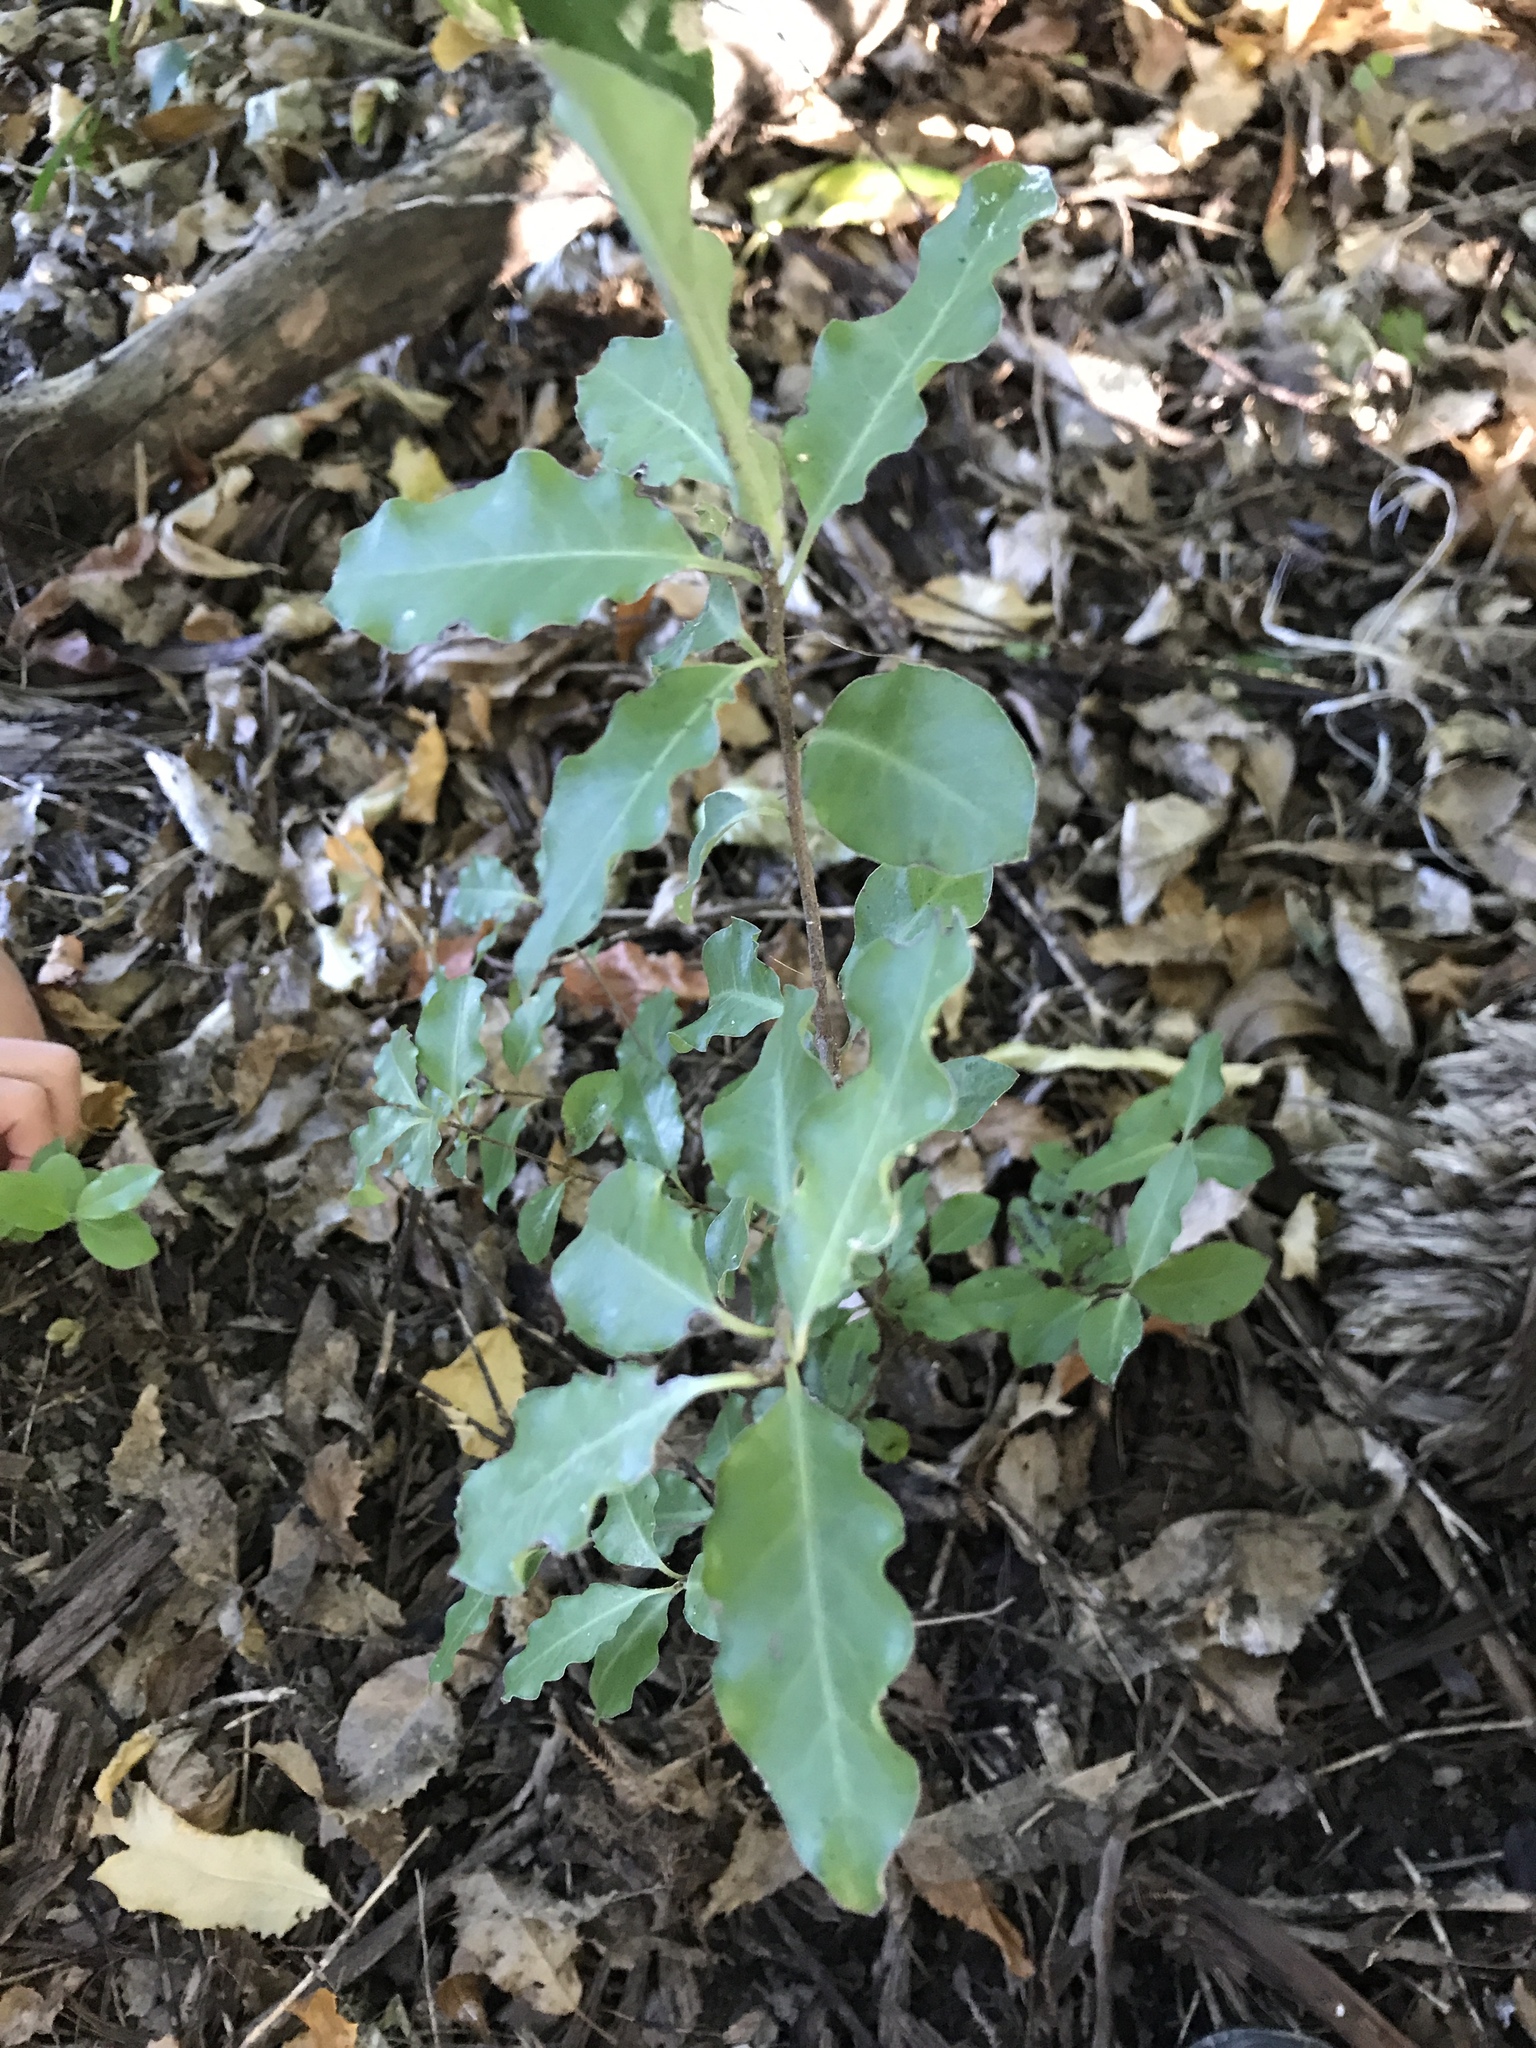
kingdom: Plantae
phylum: Tracheophyta
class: Magnoliopsida
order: Apiales
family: Pittosporaceae
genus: Pittosporum
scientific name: Pittosporum tenuifolium
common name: Kohuhu
